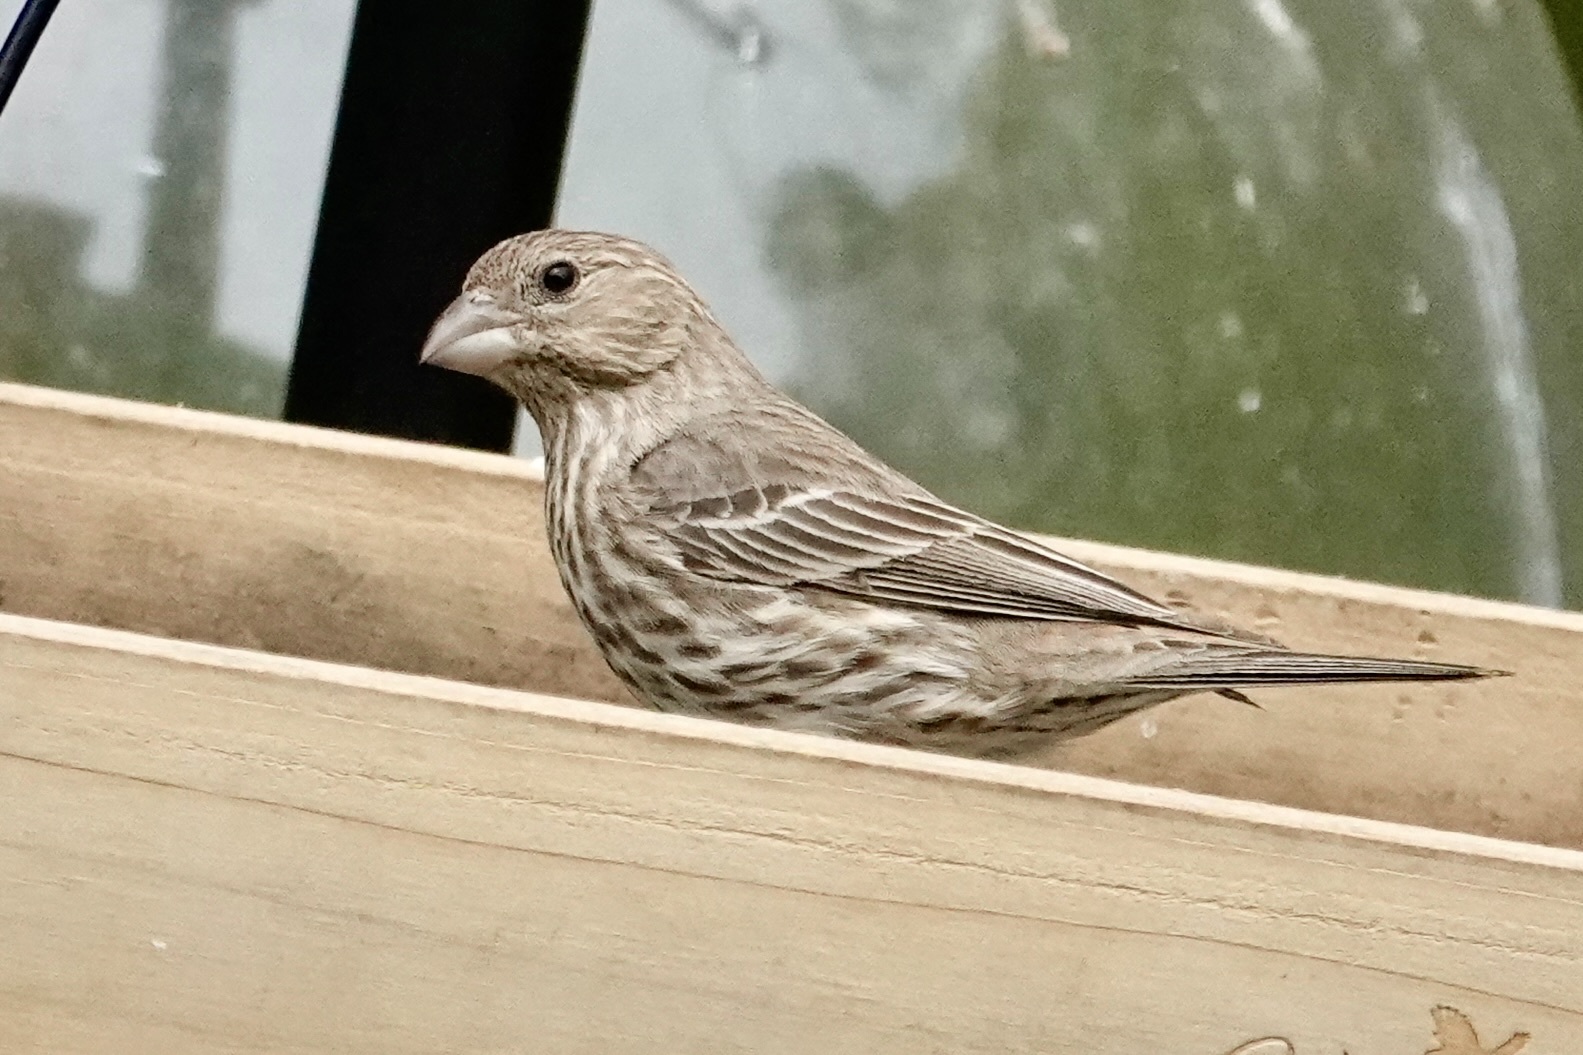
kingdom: Animalia
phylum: Chordata
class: Aves
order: Passeriformes
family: Fringillidae
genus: Haemorhous
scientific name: Haemorhous mexicanus
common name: House finch
